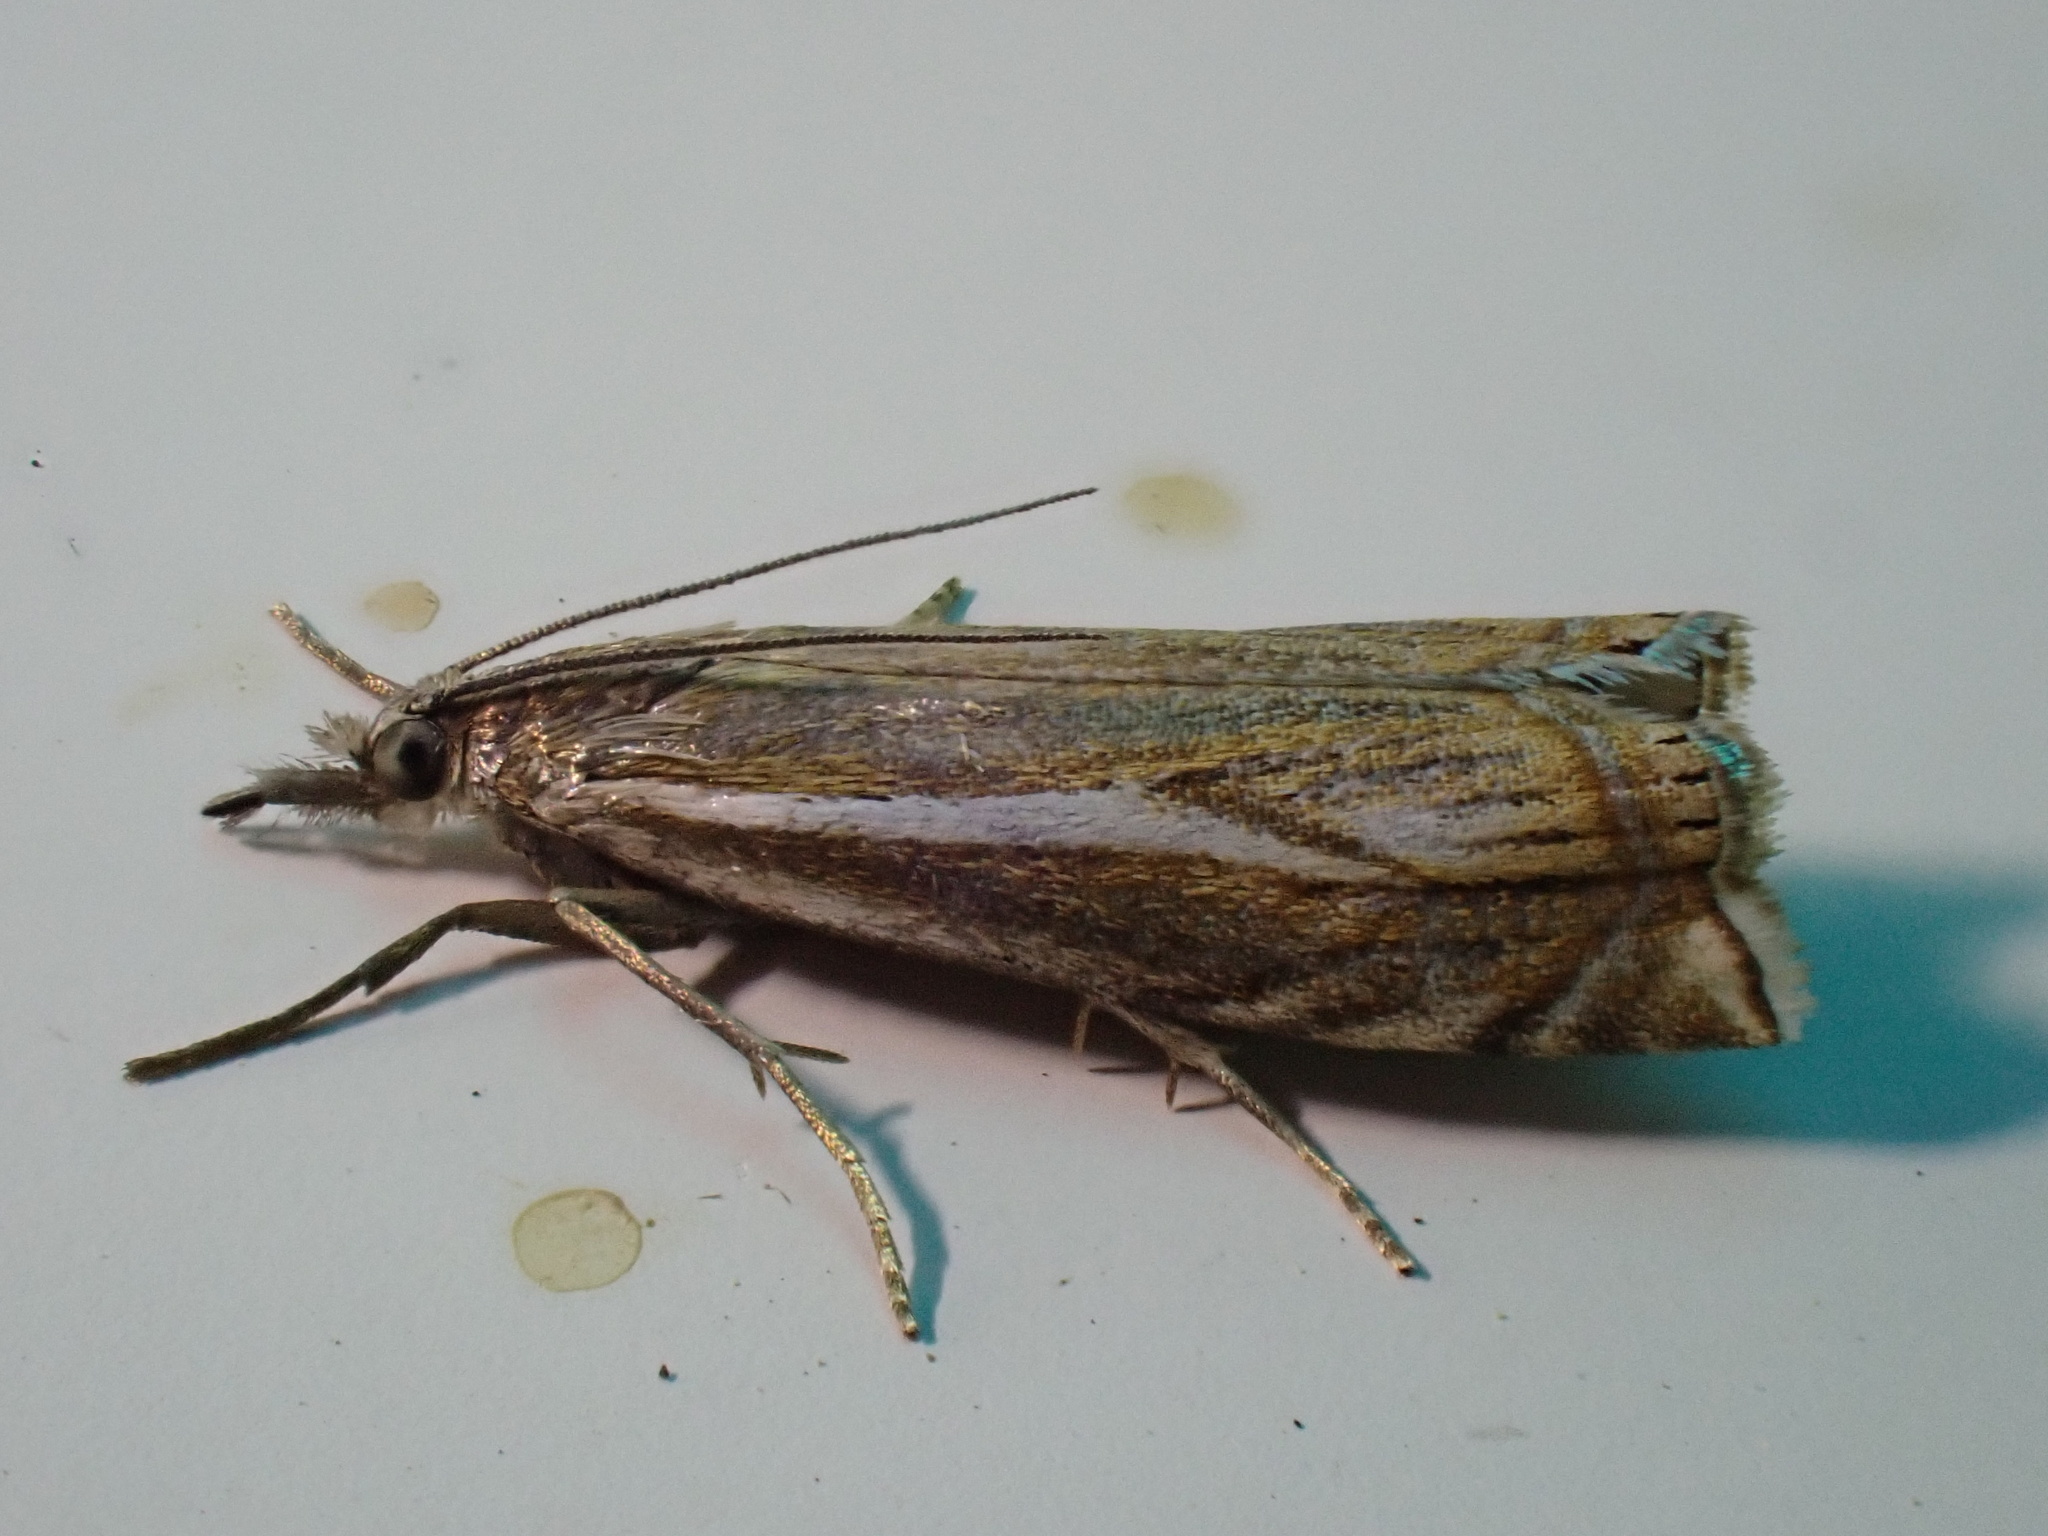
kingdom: Animalia
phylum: Arthropoda
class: Insecta
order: Lepidoptera
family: Crambidae
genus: Crambus
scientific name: Crambus nemorella
